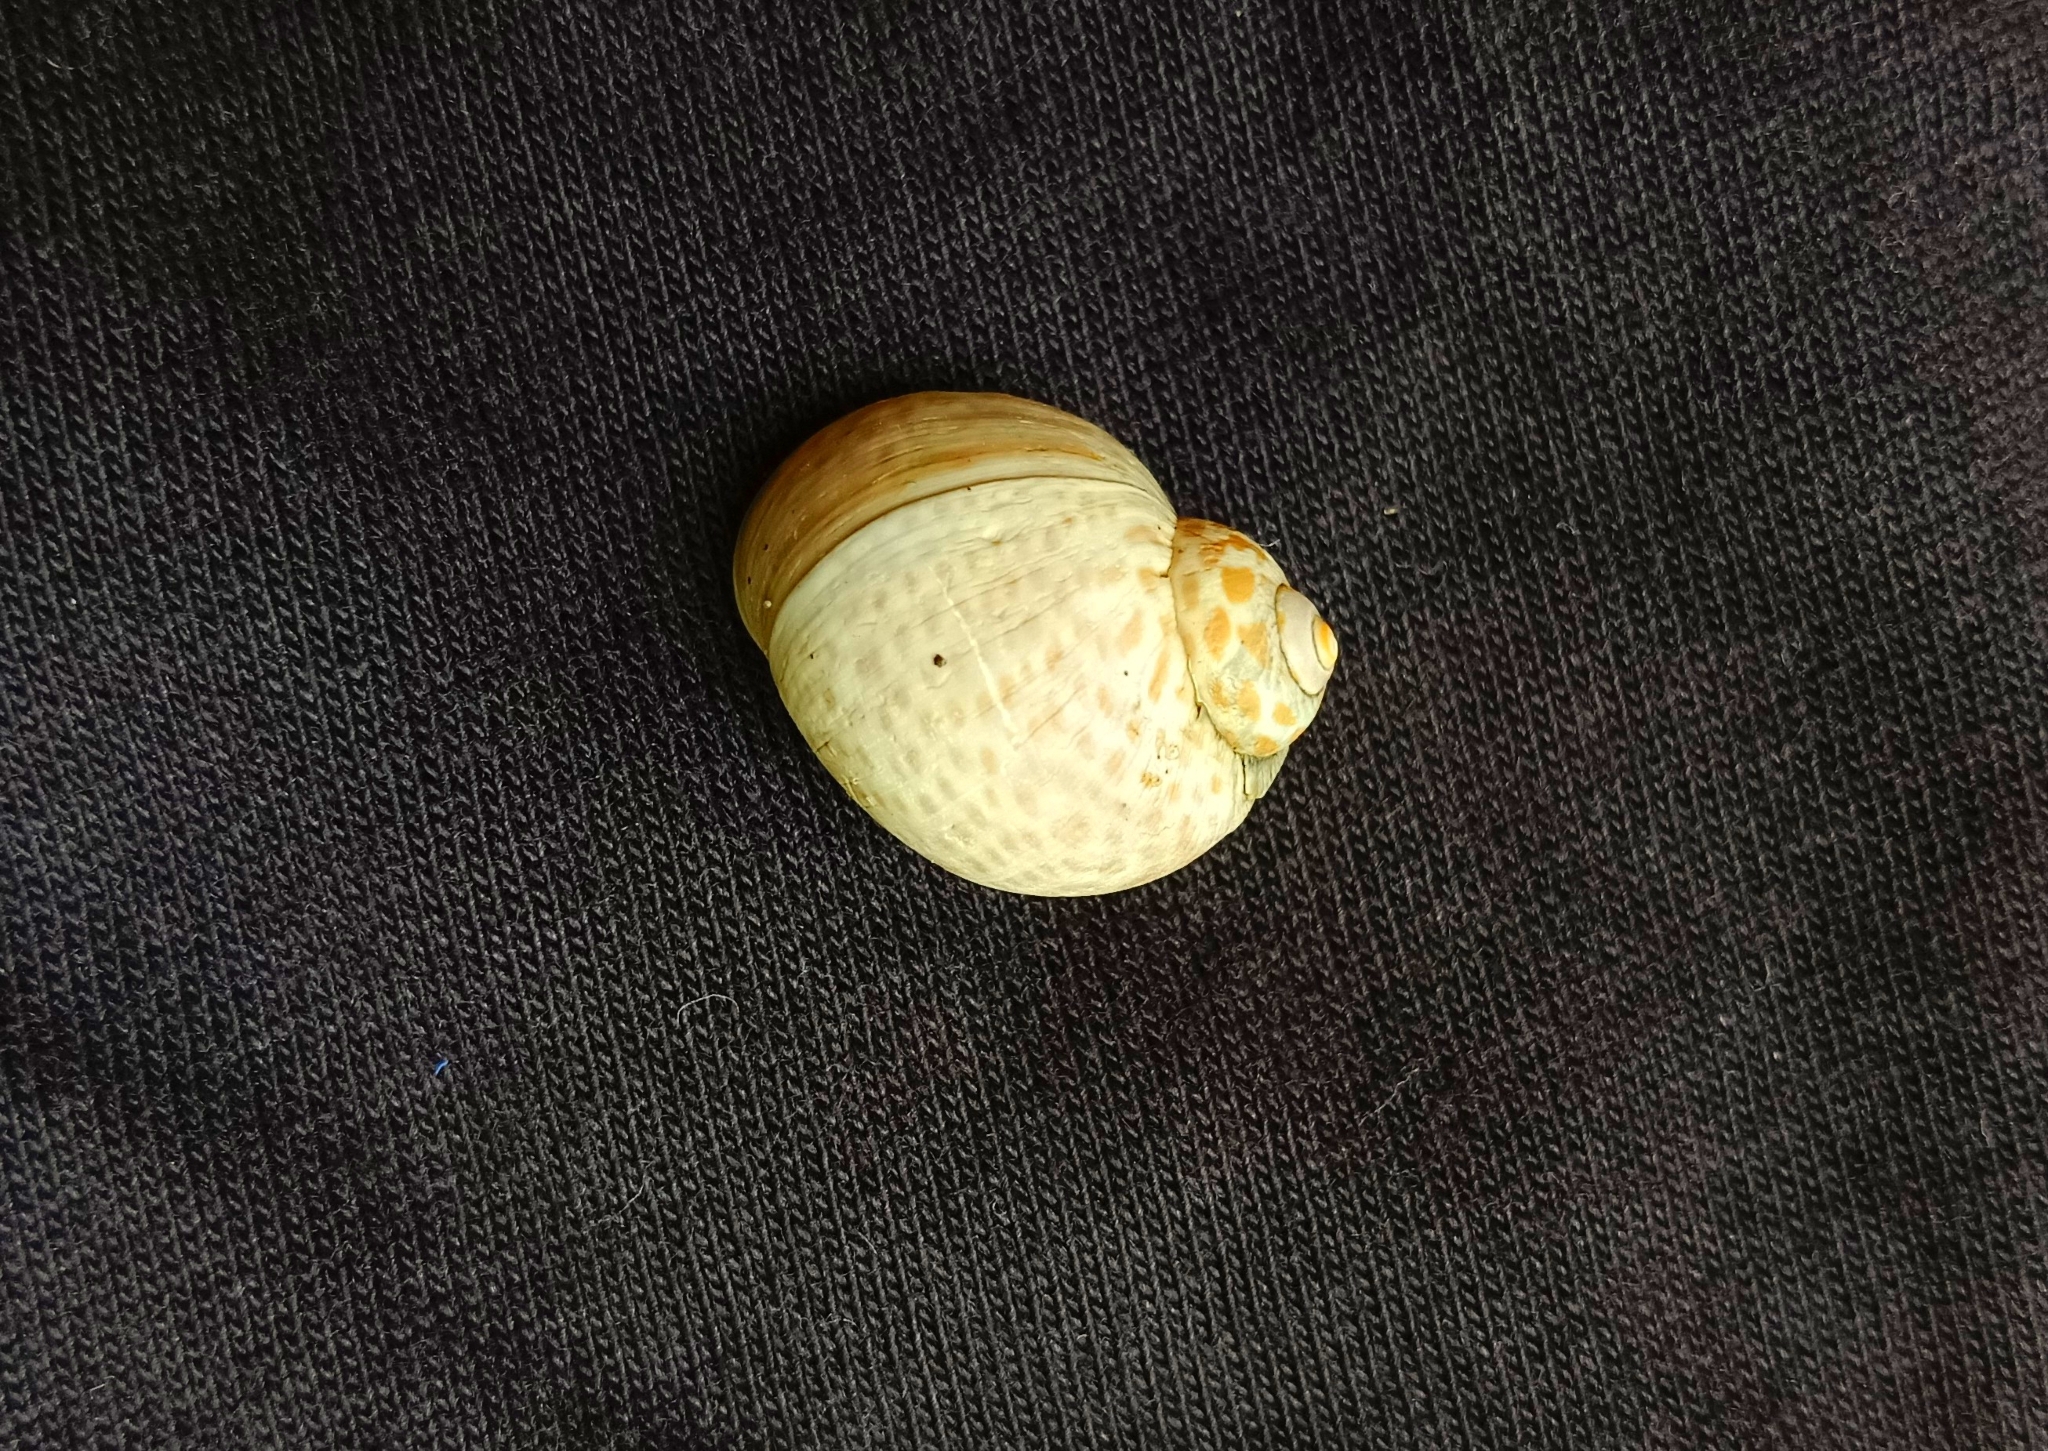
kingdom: Animalia
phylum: Mollusca
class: Gastropoda
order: Littorinimorpha
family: Naticidae
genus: Paratectonatica
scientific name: Paratectonatica tigrina
